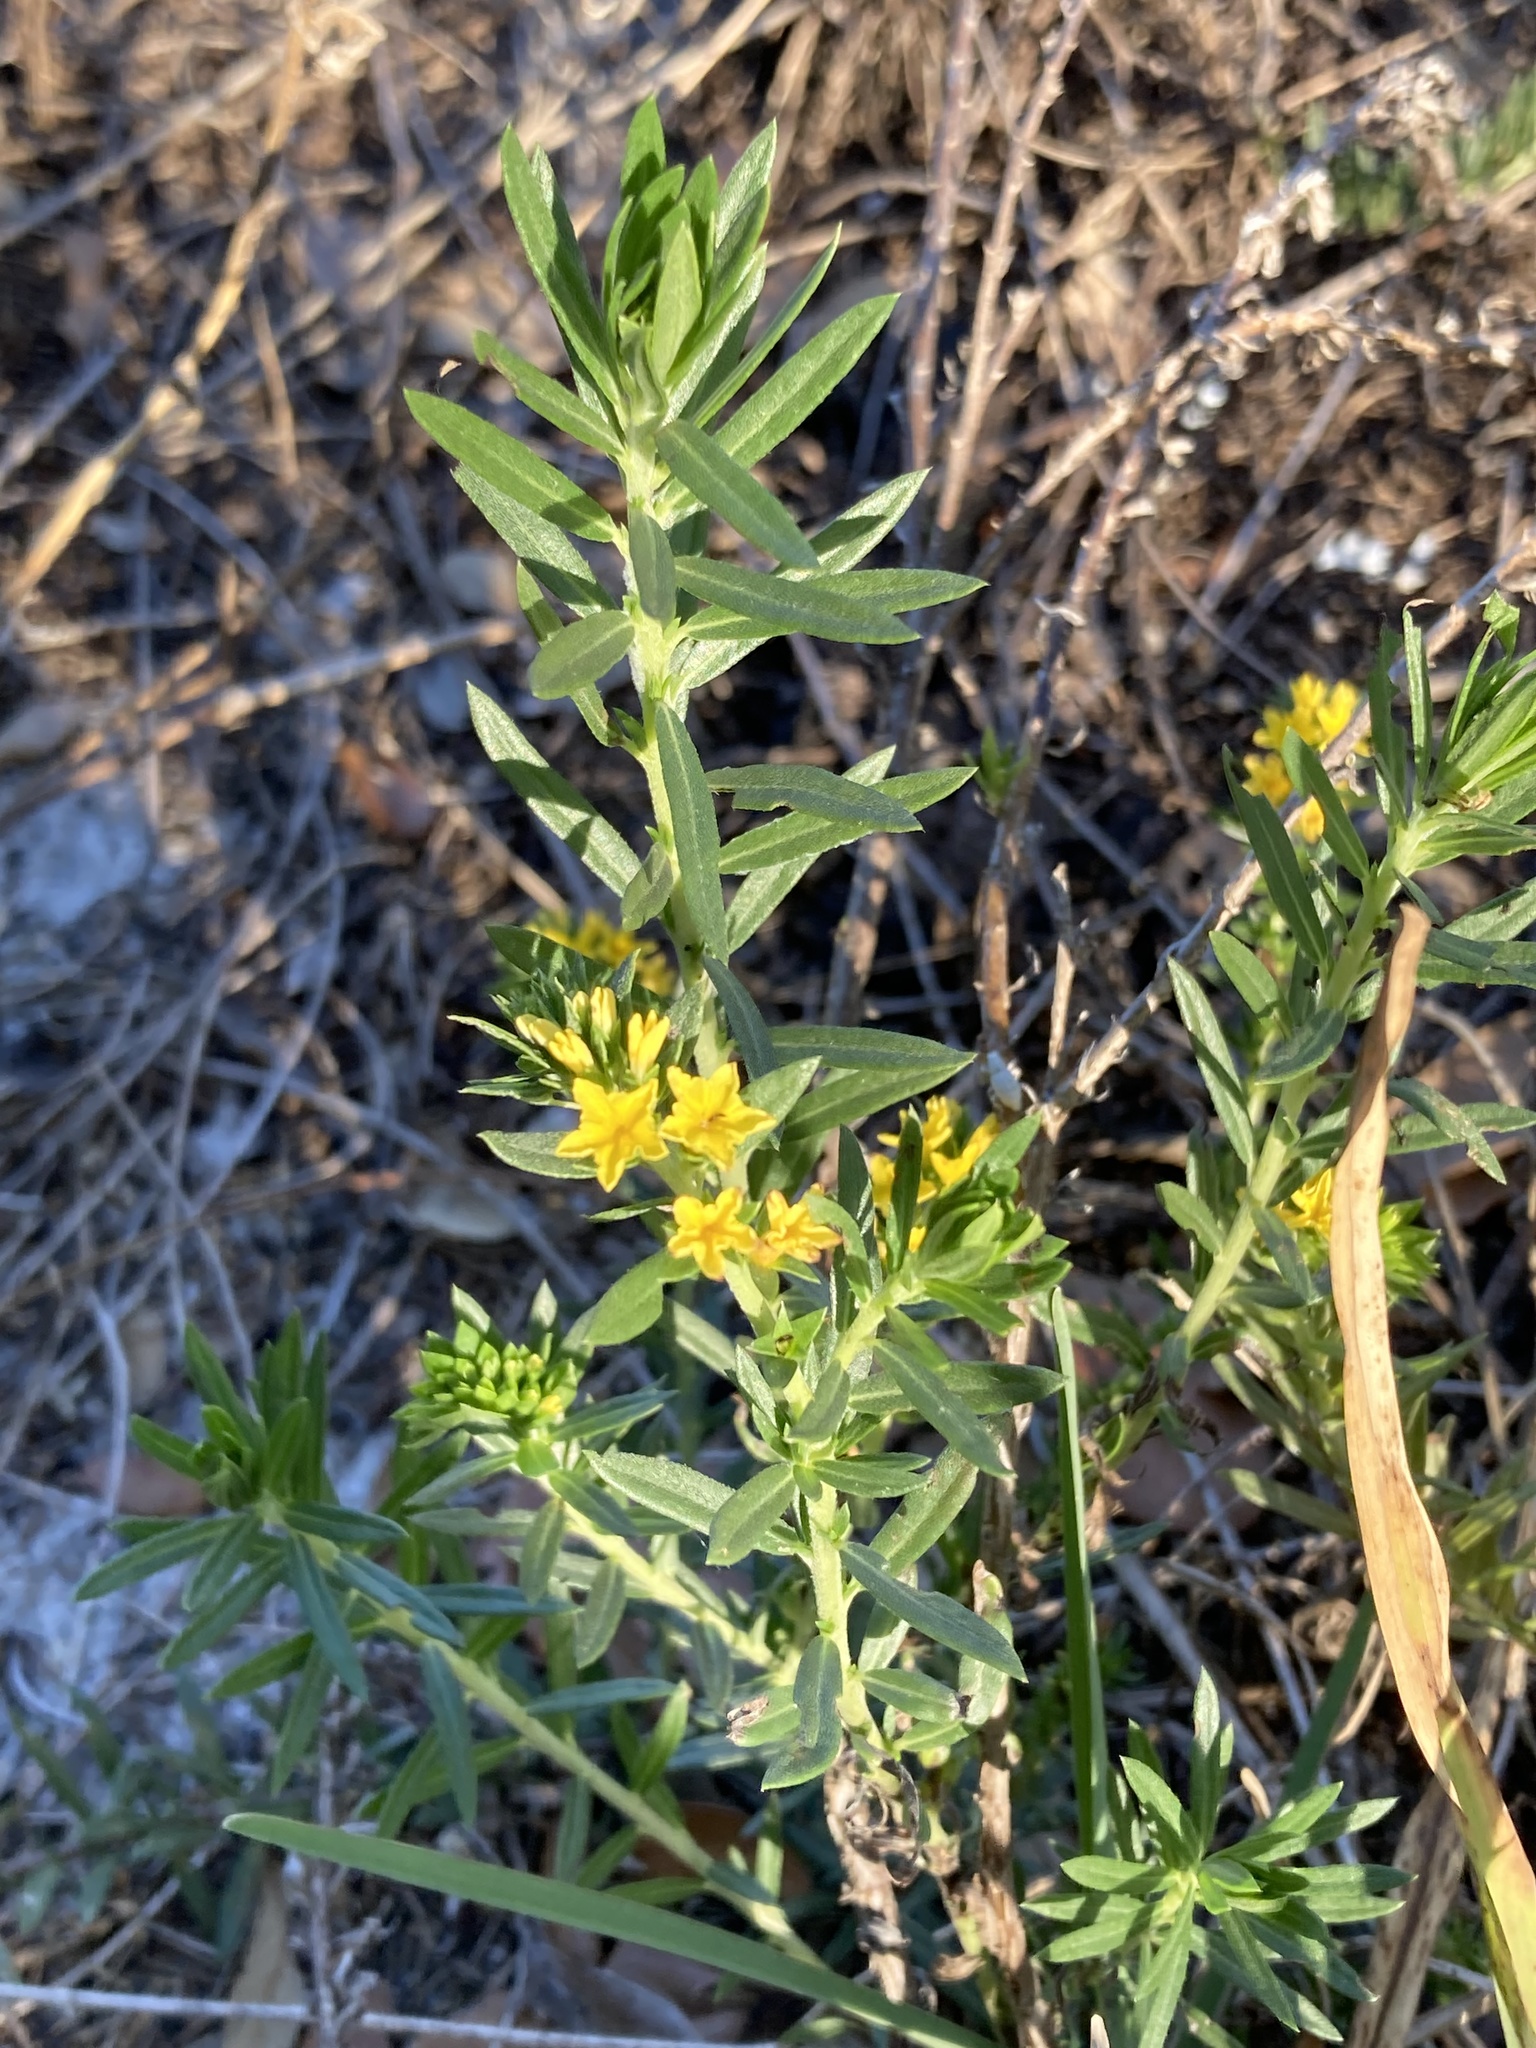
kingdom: Plantae
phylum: Tracheophyta
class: Magnoliopsida
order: Boraginales
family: Heliotropiaceae
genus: Euploca
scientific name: Euploca polyphylla
